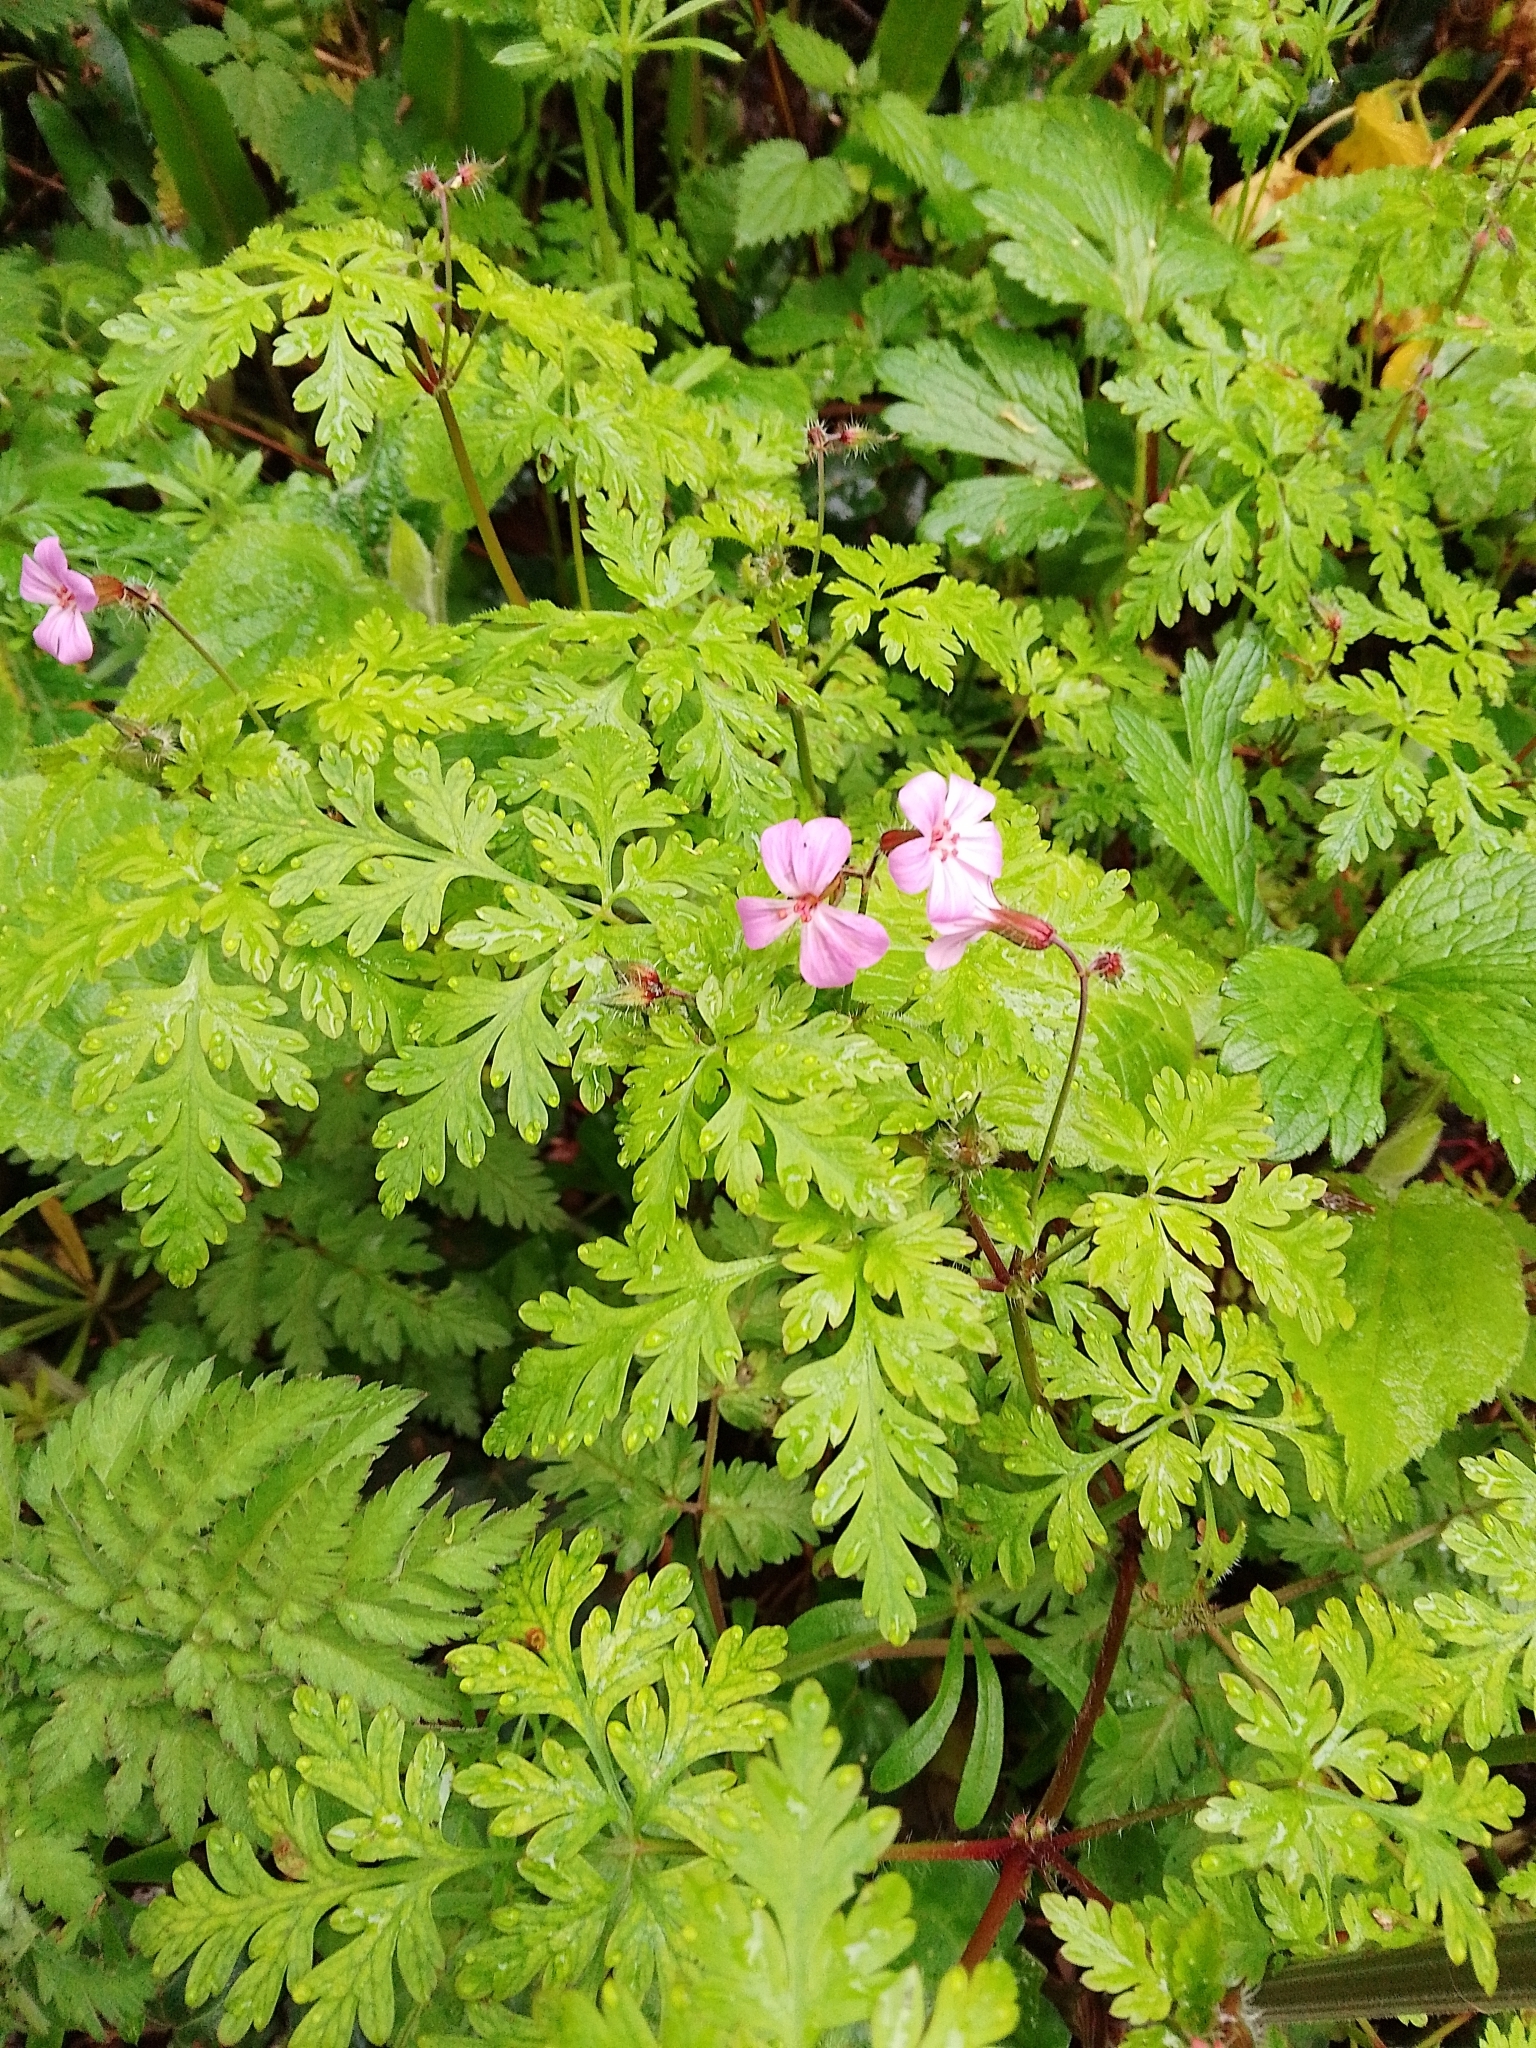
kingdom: Plantae
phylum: Tracheophyta
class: Magnoliopsida
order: Geraniales
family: Geraniaceae
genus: Geranium
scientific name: Geranium robertianum
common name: Herb-robert
